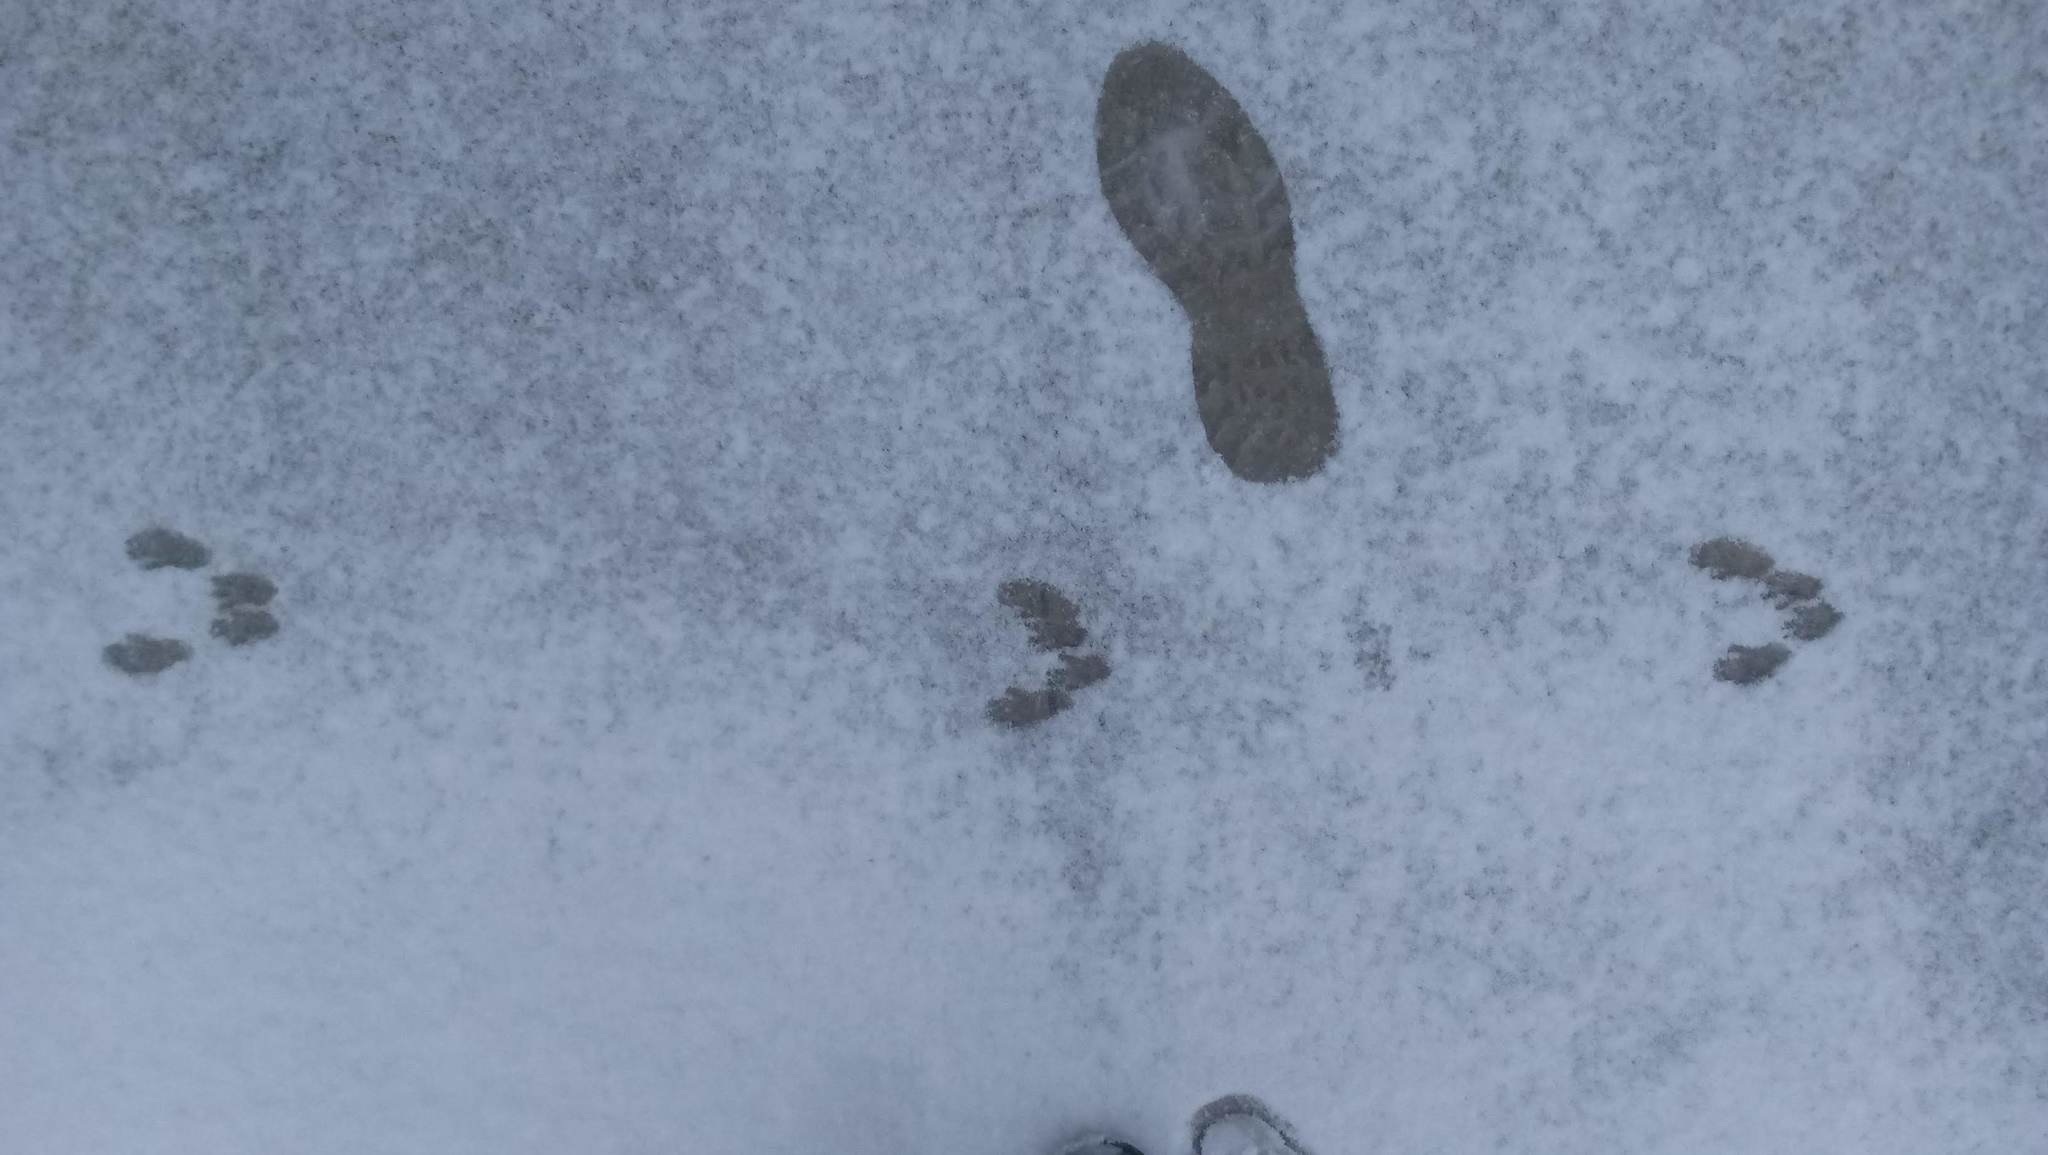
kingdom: Animalia
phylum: Chordata
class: Mammalia
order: Rodentia
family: Sciuridae
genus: Sciurus
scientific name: Sciurus carolinensis
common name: Eastern gray squirrel
